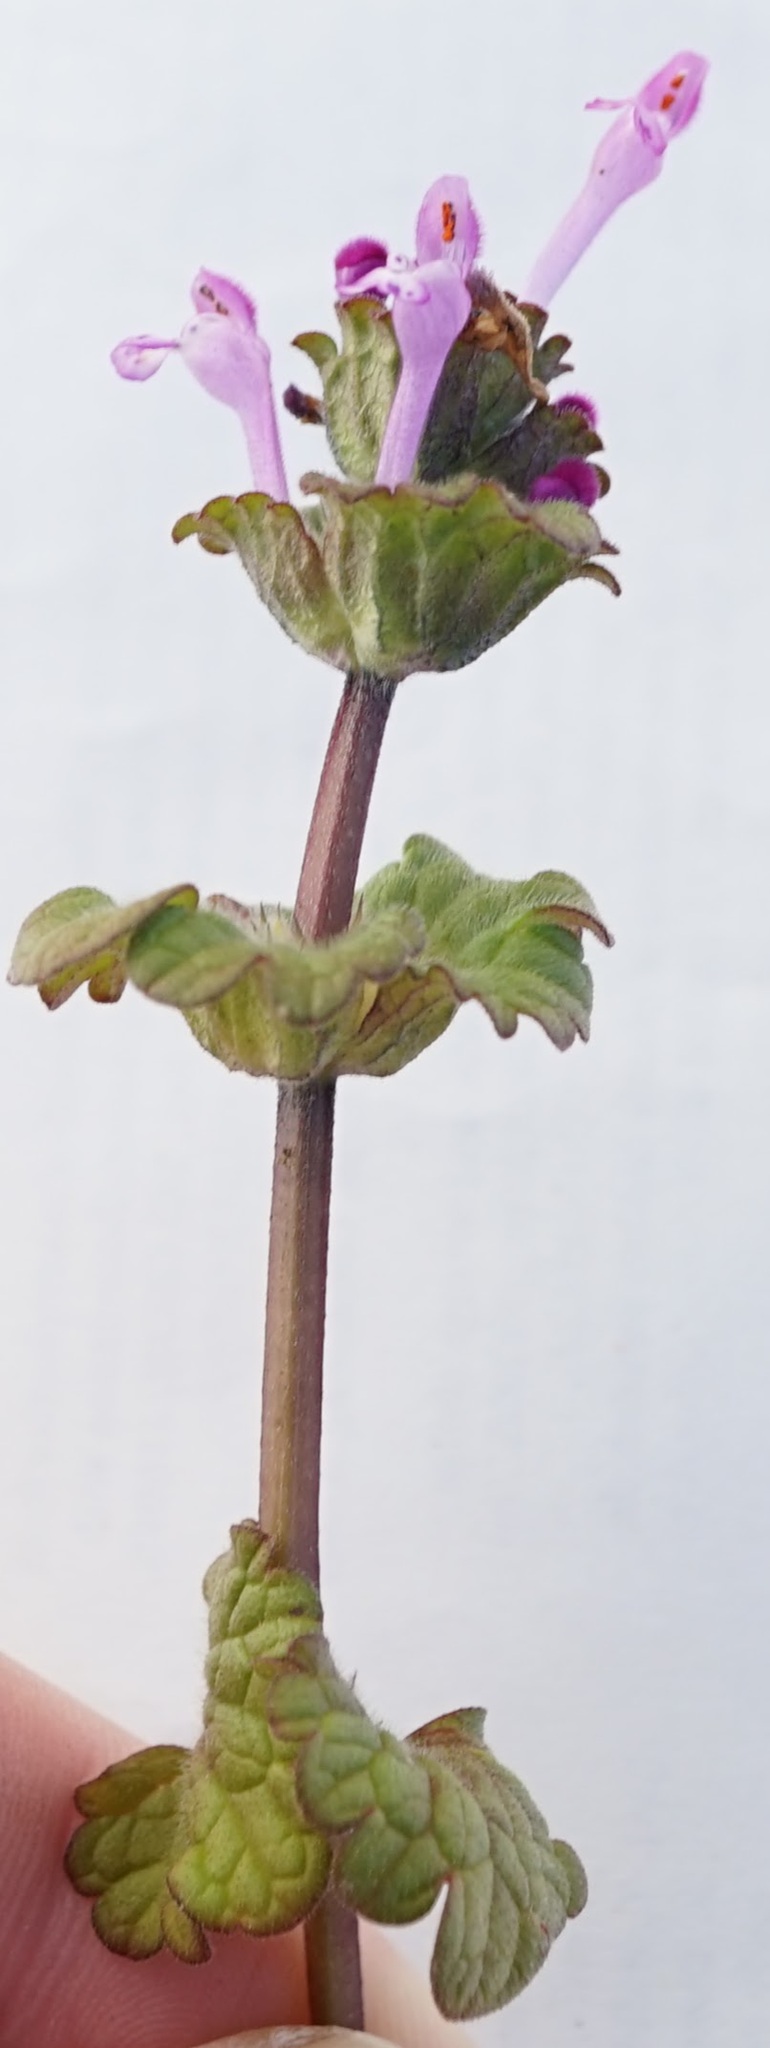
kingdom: Plantae
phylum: Tracheophyta
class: Magnoliopsida
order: Lamiales
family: Lamiaceae
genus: Lamium
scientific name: Lamium amplexicaule
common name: Henbit dead-nettle
